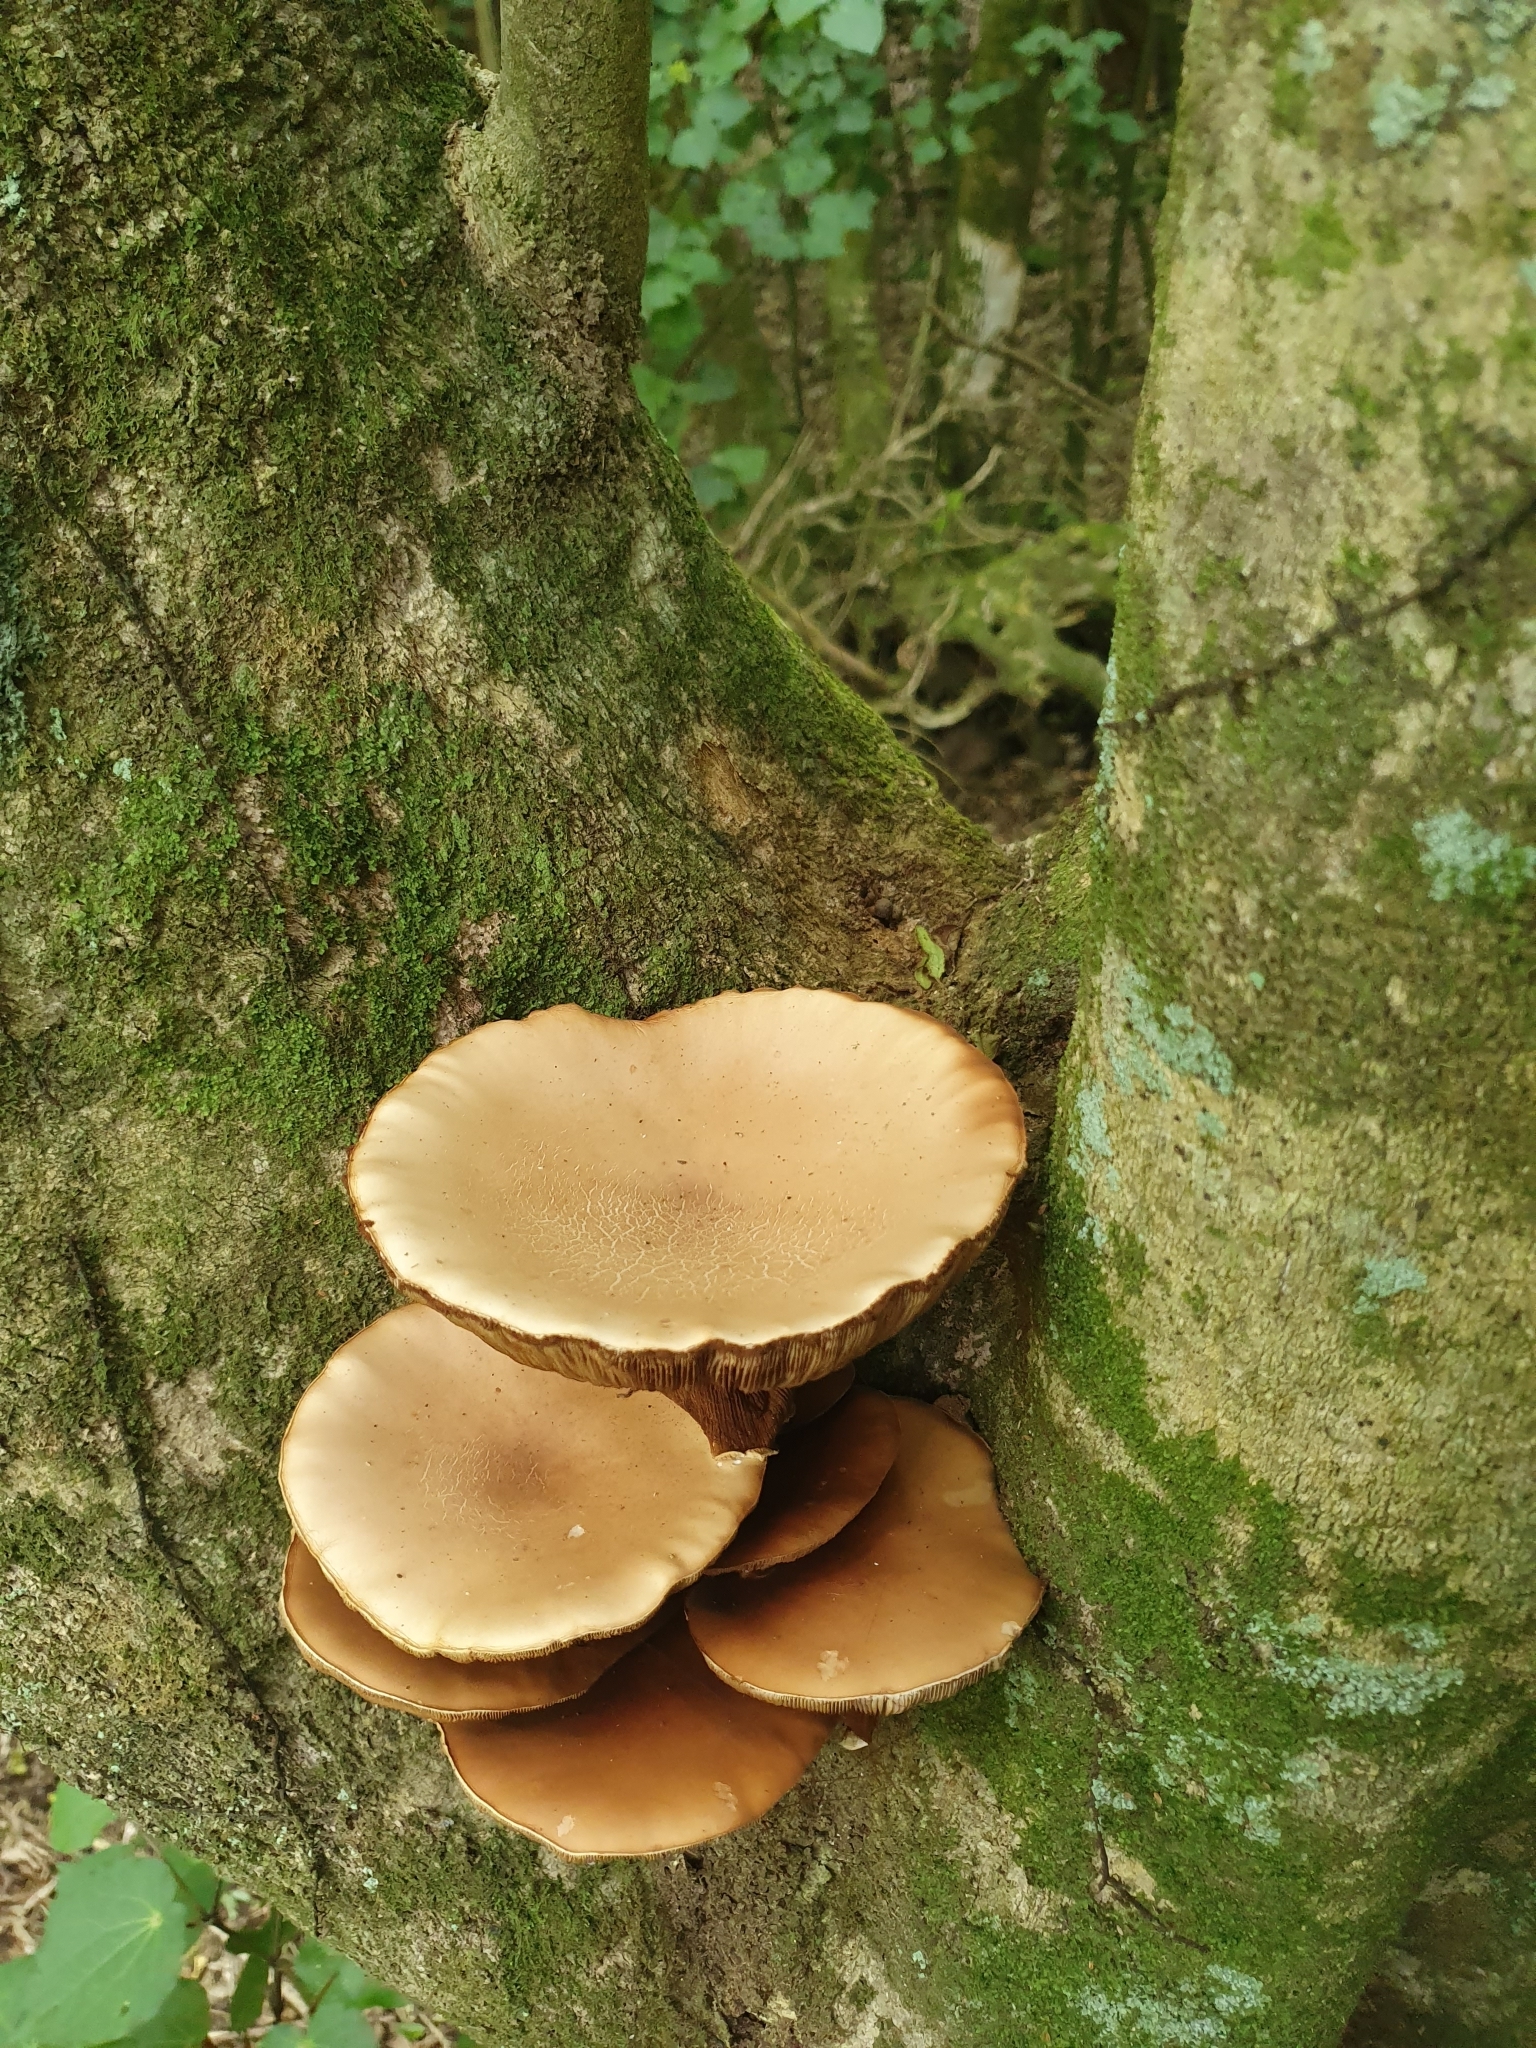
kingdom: Fungi
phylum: Basidiomycota
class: Agaricomycetes
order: Agaricales
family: Tubariaceae
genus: Cyclocybe
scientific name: Cyclocybe parasitica
